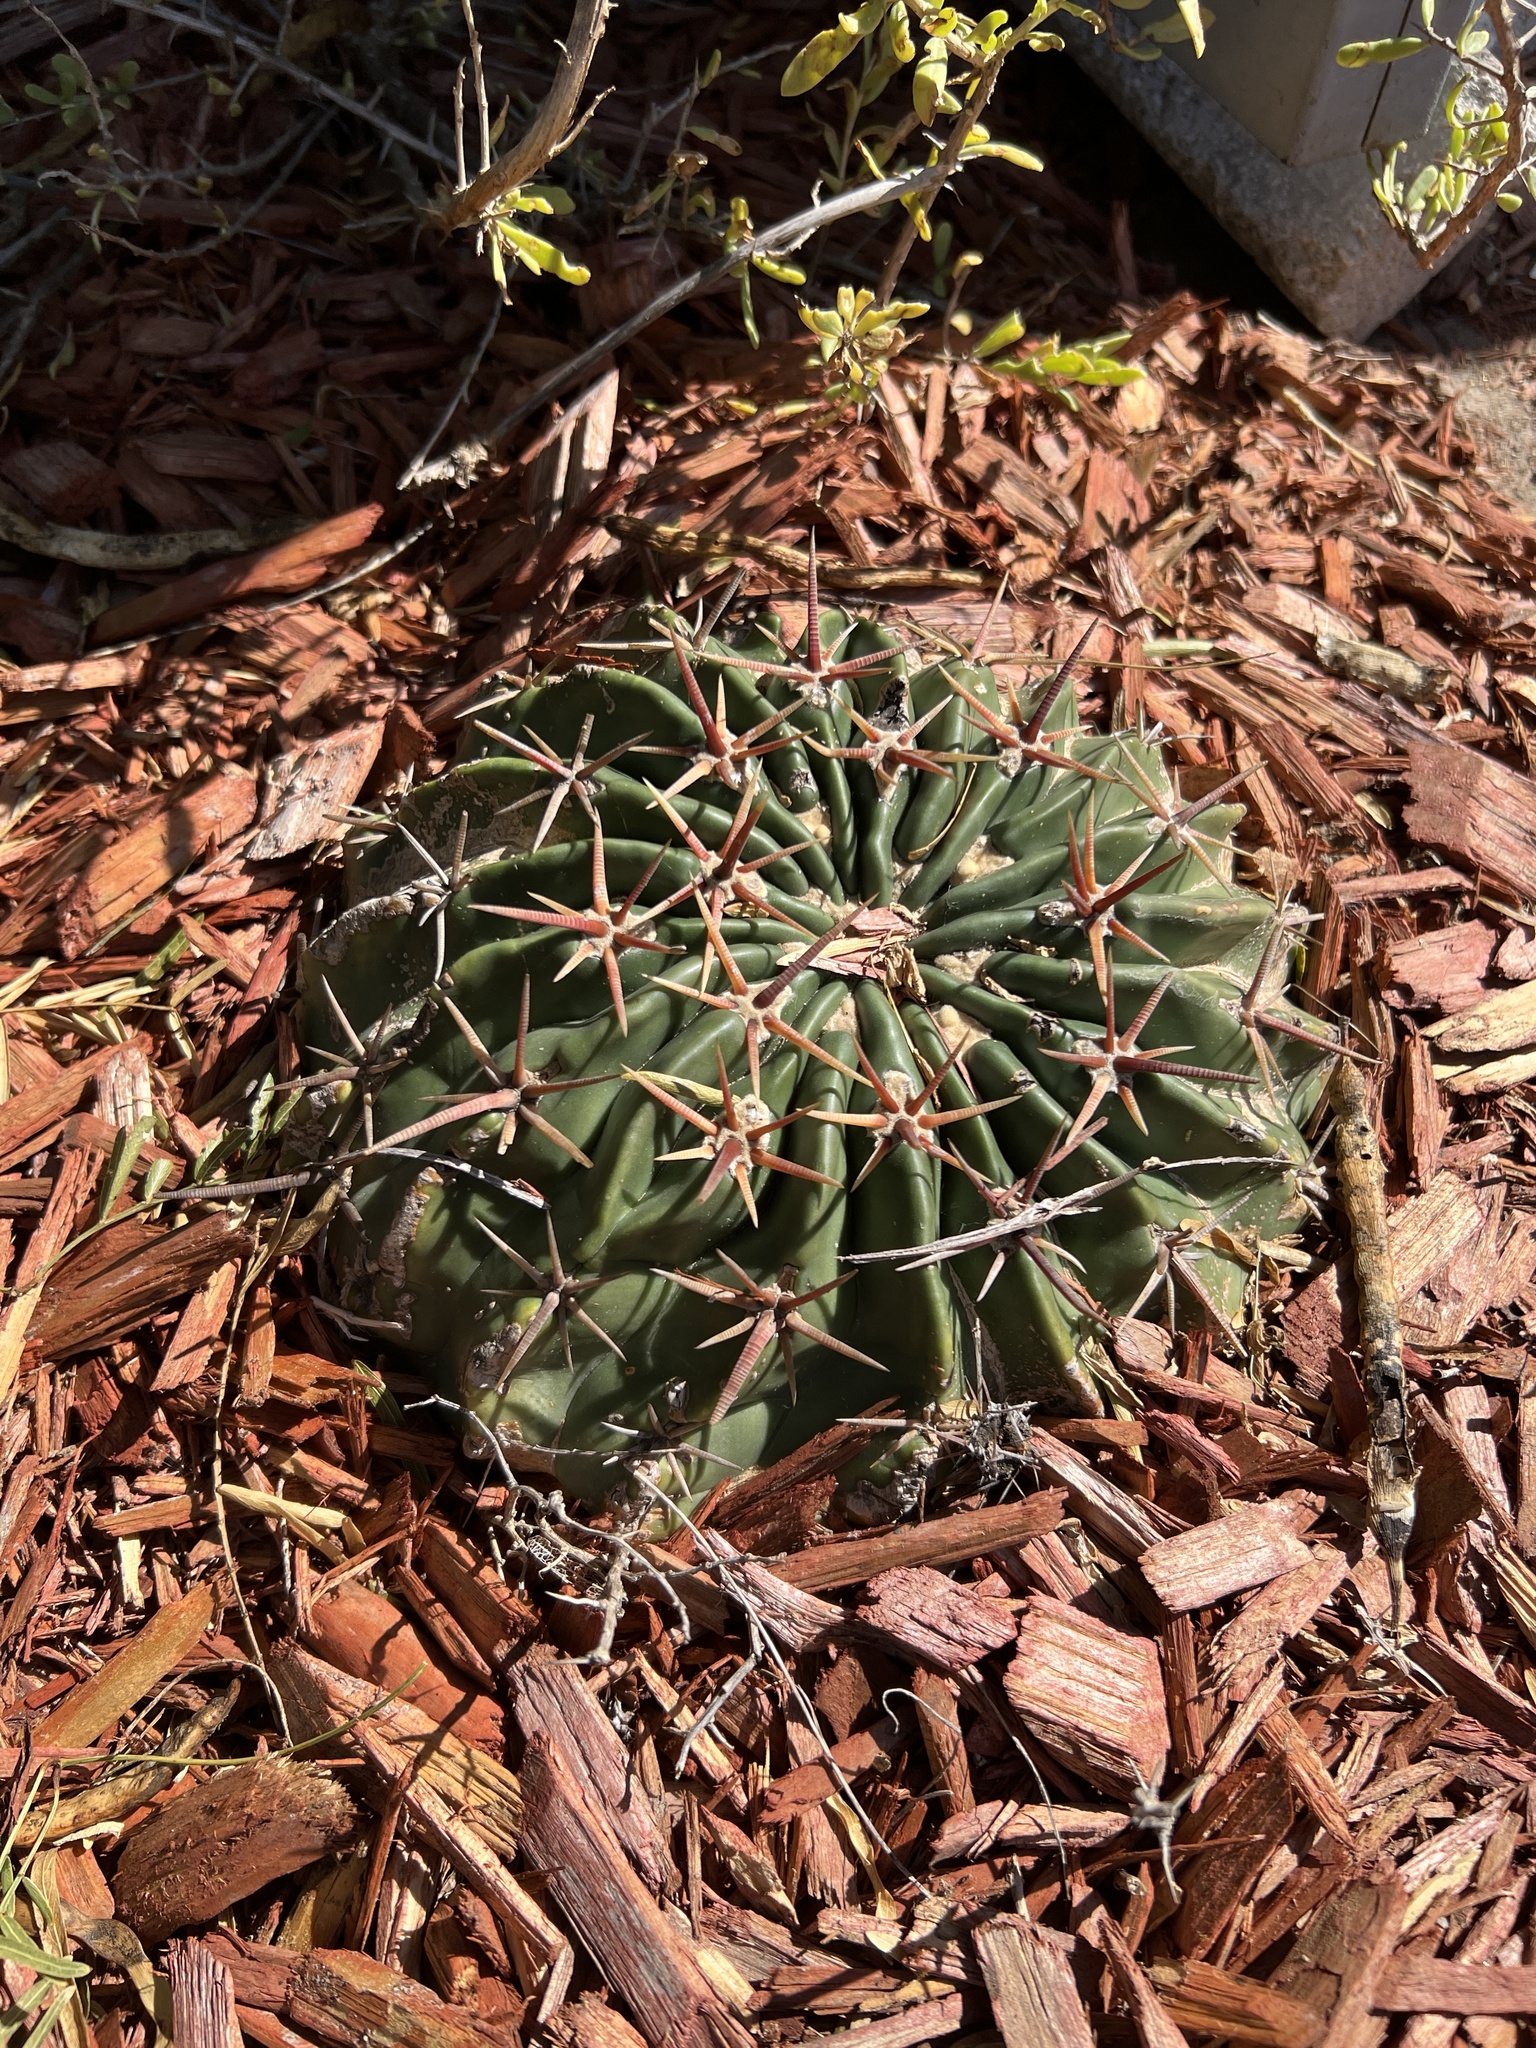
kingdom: Plantae
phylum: Tracheophyta
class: Magnoliopsida
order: Caryophyllales
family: Cactaceae
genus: Echinocactus
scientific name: Echinocactus texensis
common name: Devil's pincushion
